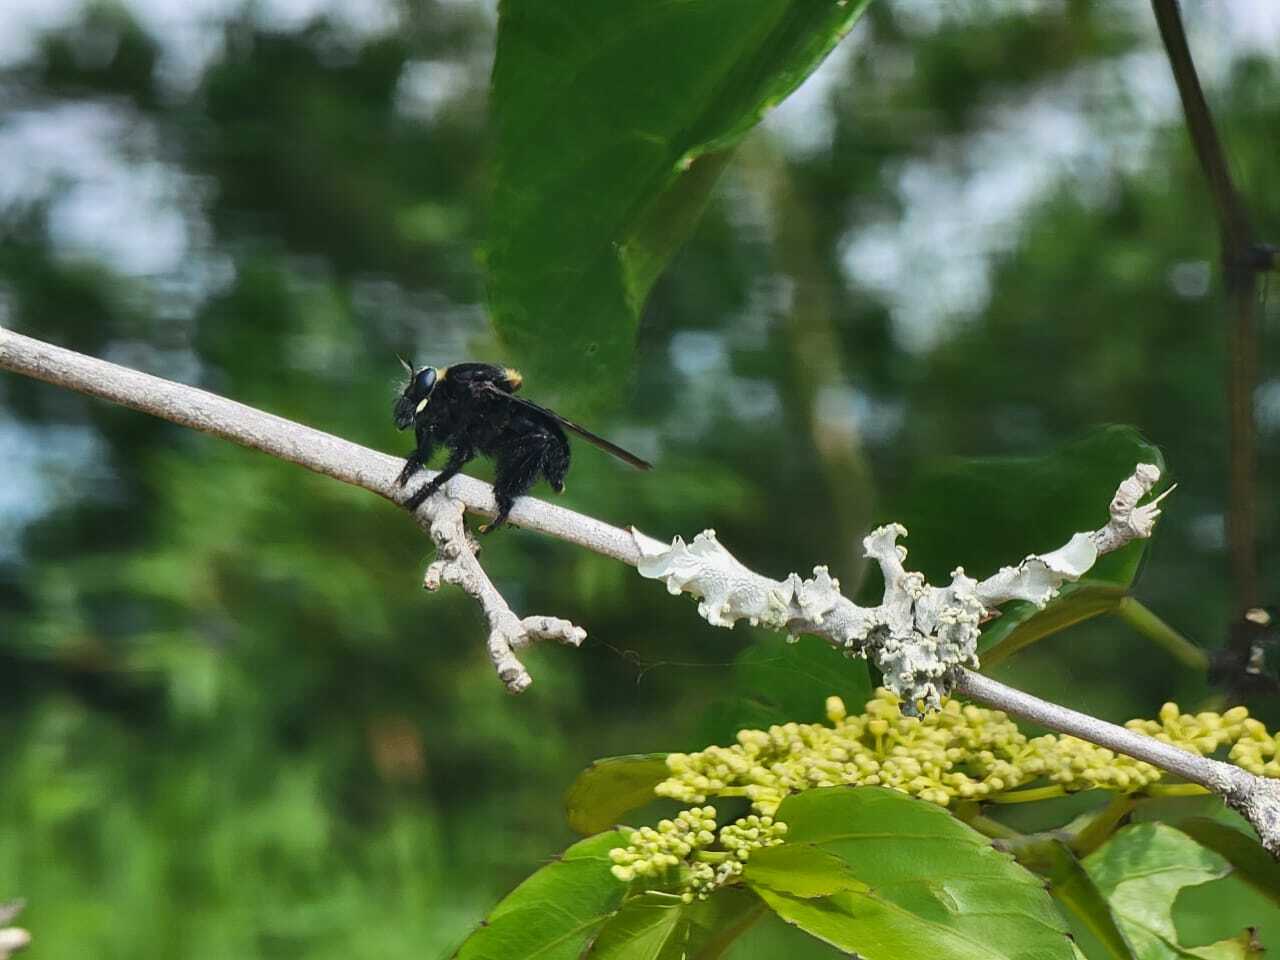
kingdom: Animalia
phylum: Arthropoda
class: Insecta
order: Diptera
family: Asilidae
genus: Mallophora
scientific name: Mallophora leschenaultii
